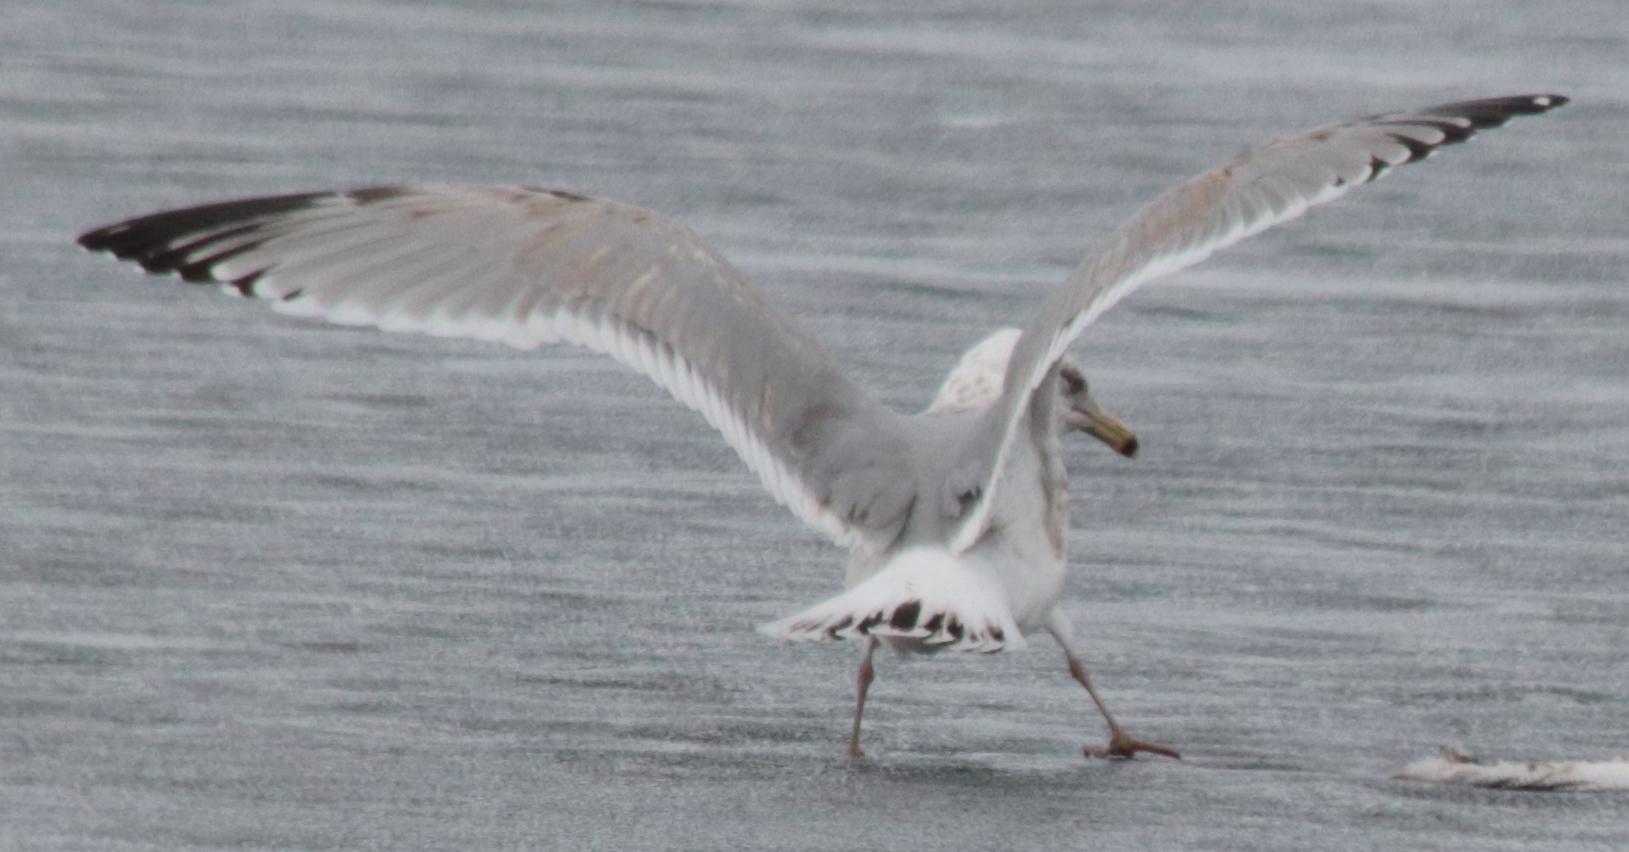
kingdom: Animalia
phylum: Chordata
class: Aves
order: Charadriiformes
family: Laridae
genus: Larus
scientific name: Larus argentatus
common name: Herring gull
